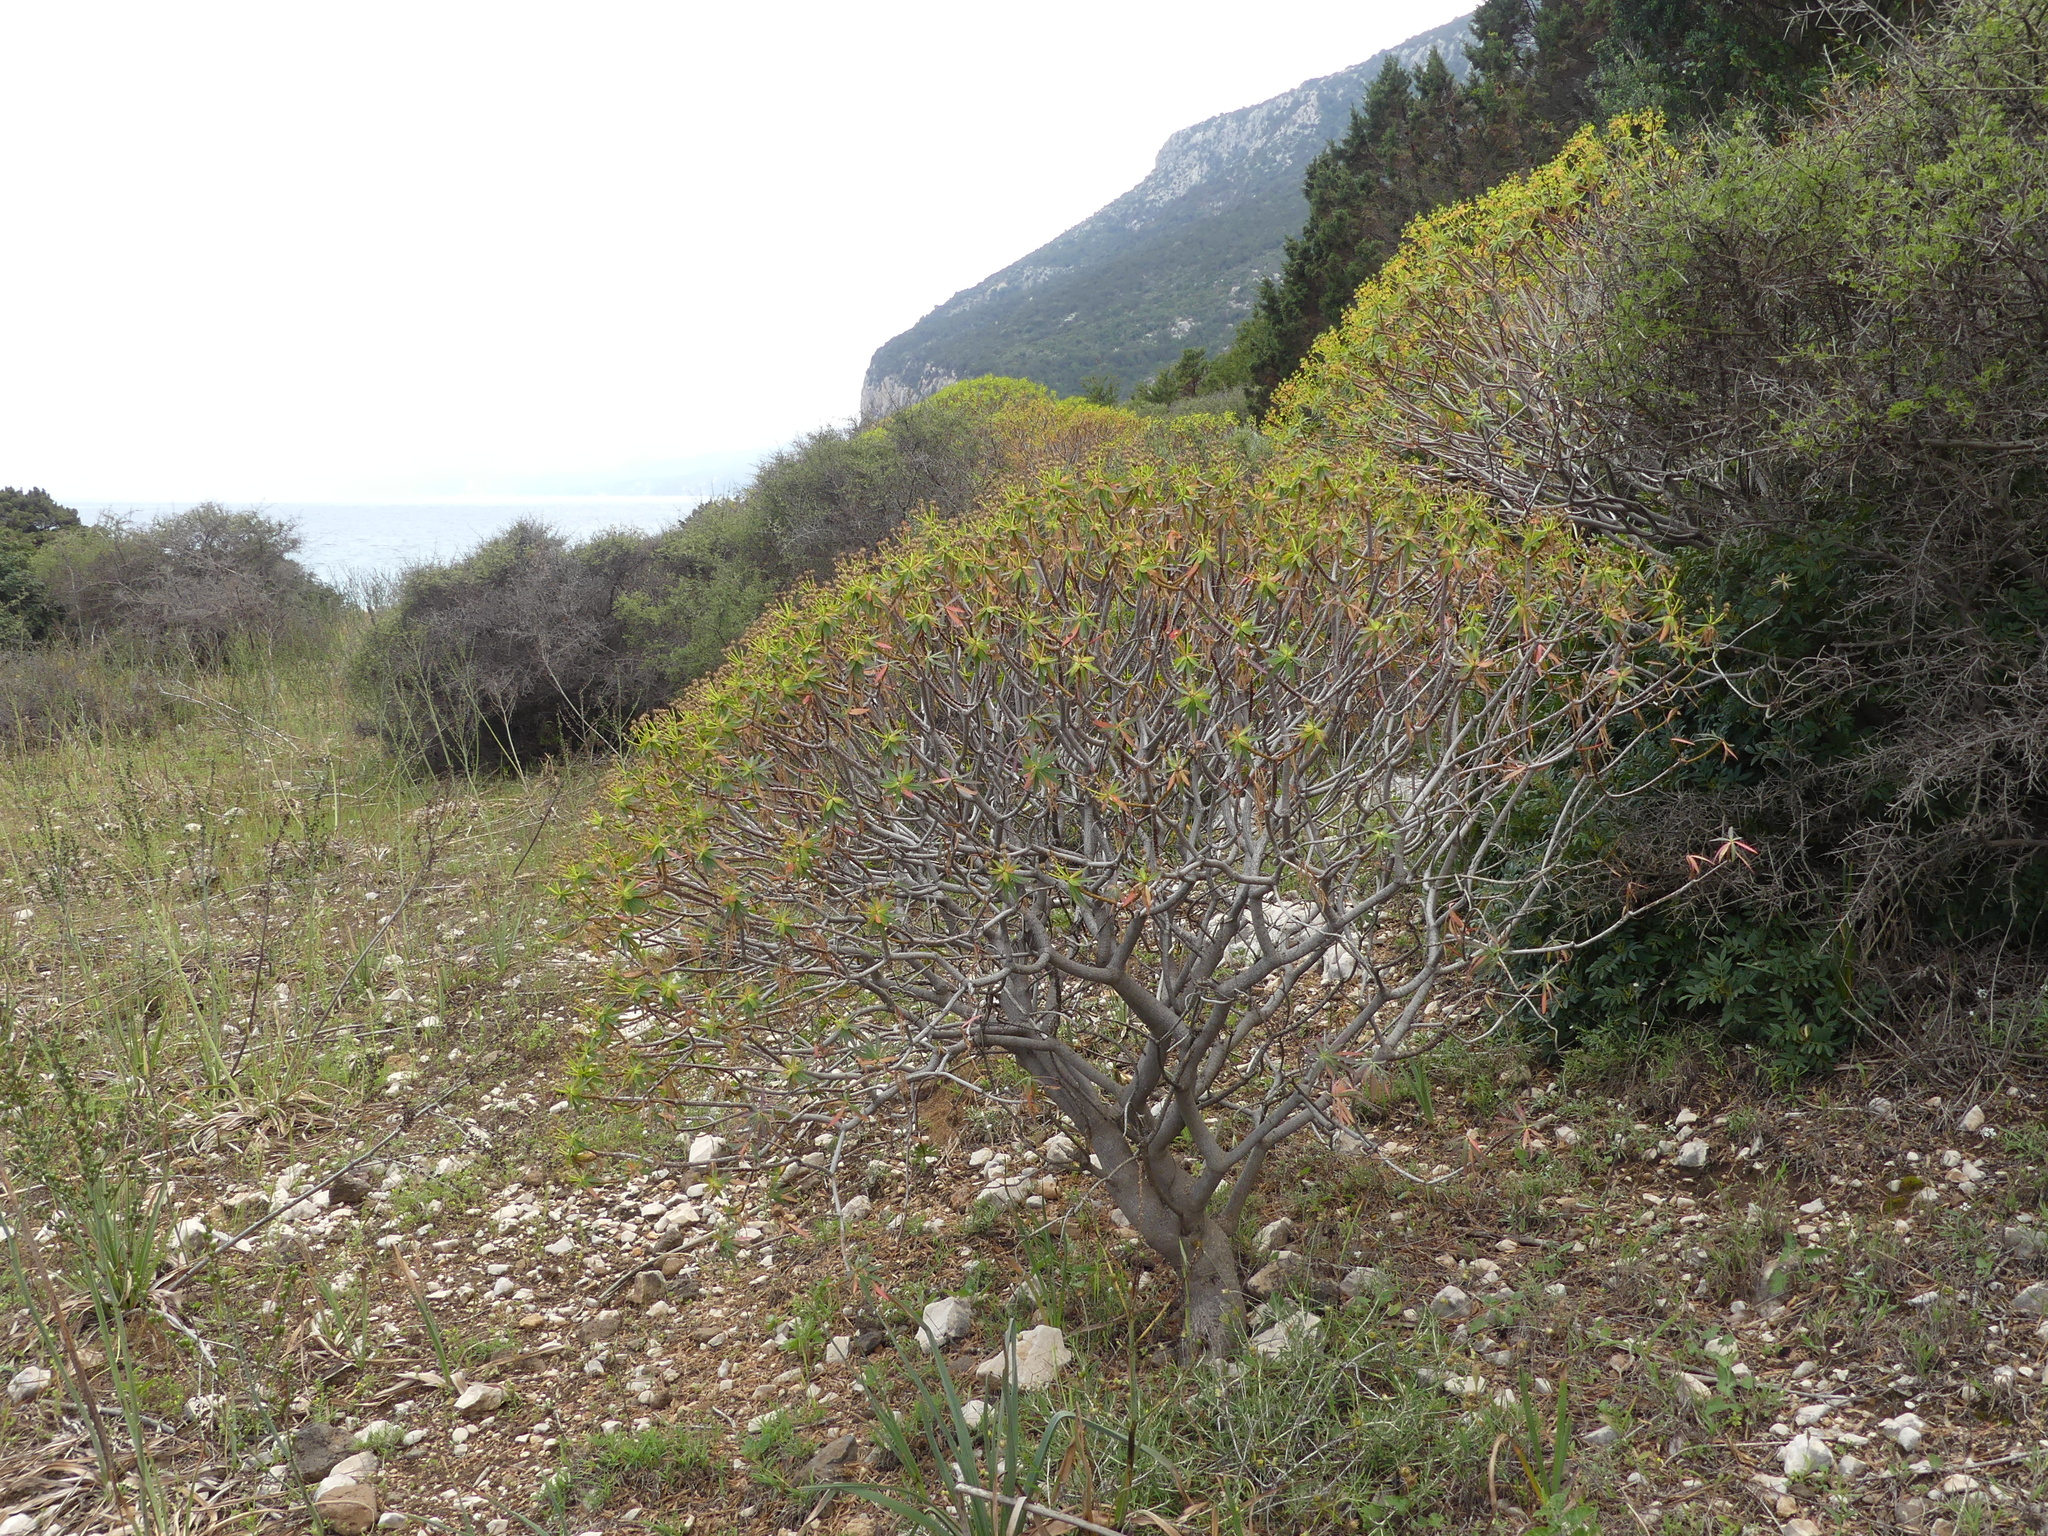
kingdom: Plantae
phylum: Tracheophyta
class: Magnoliopsida
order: Malpighiales
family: Euphorbiaceae
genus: Euphorbia
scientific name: Euphorbia dendroides
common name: Tree spurge
